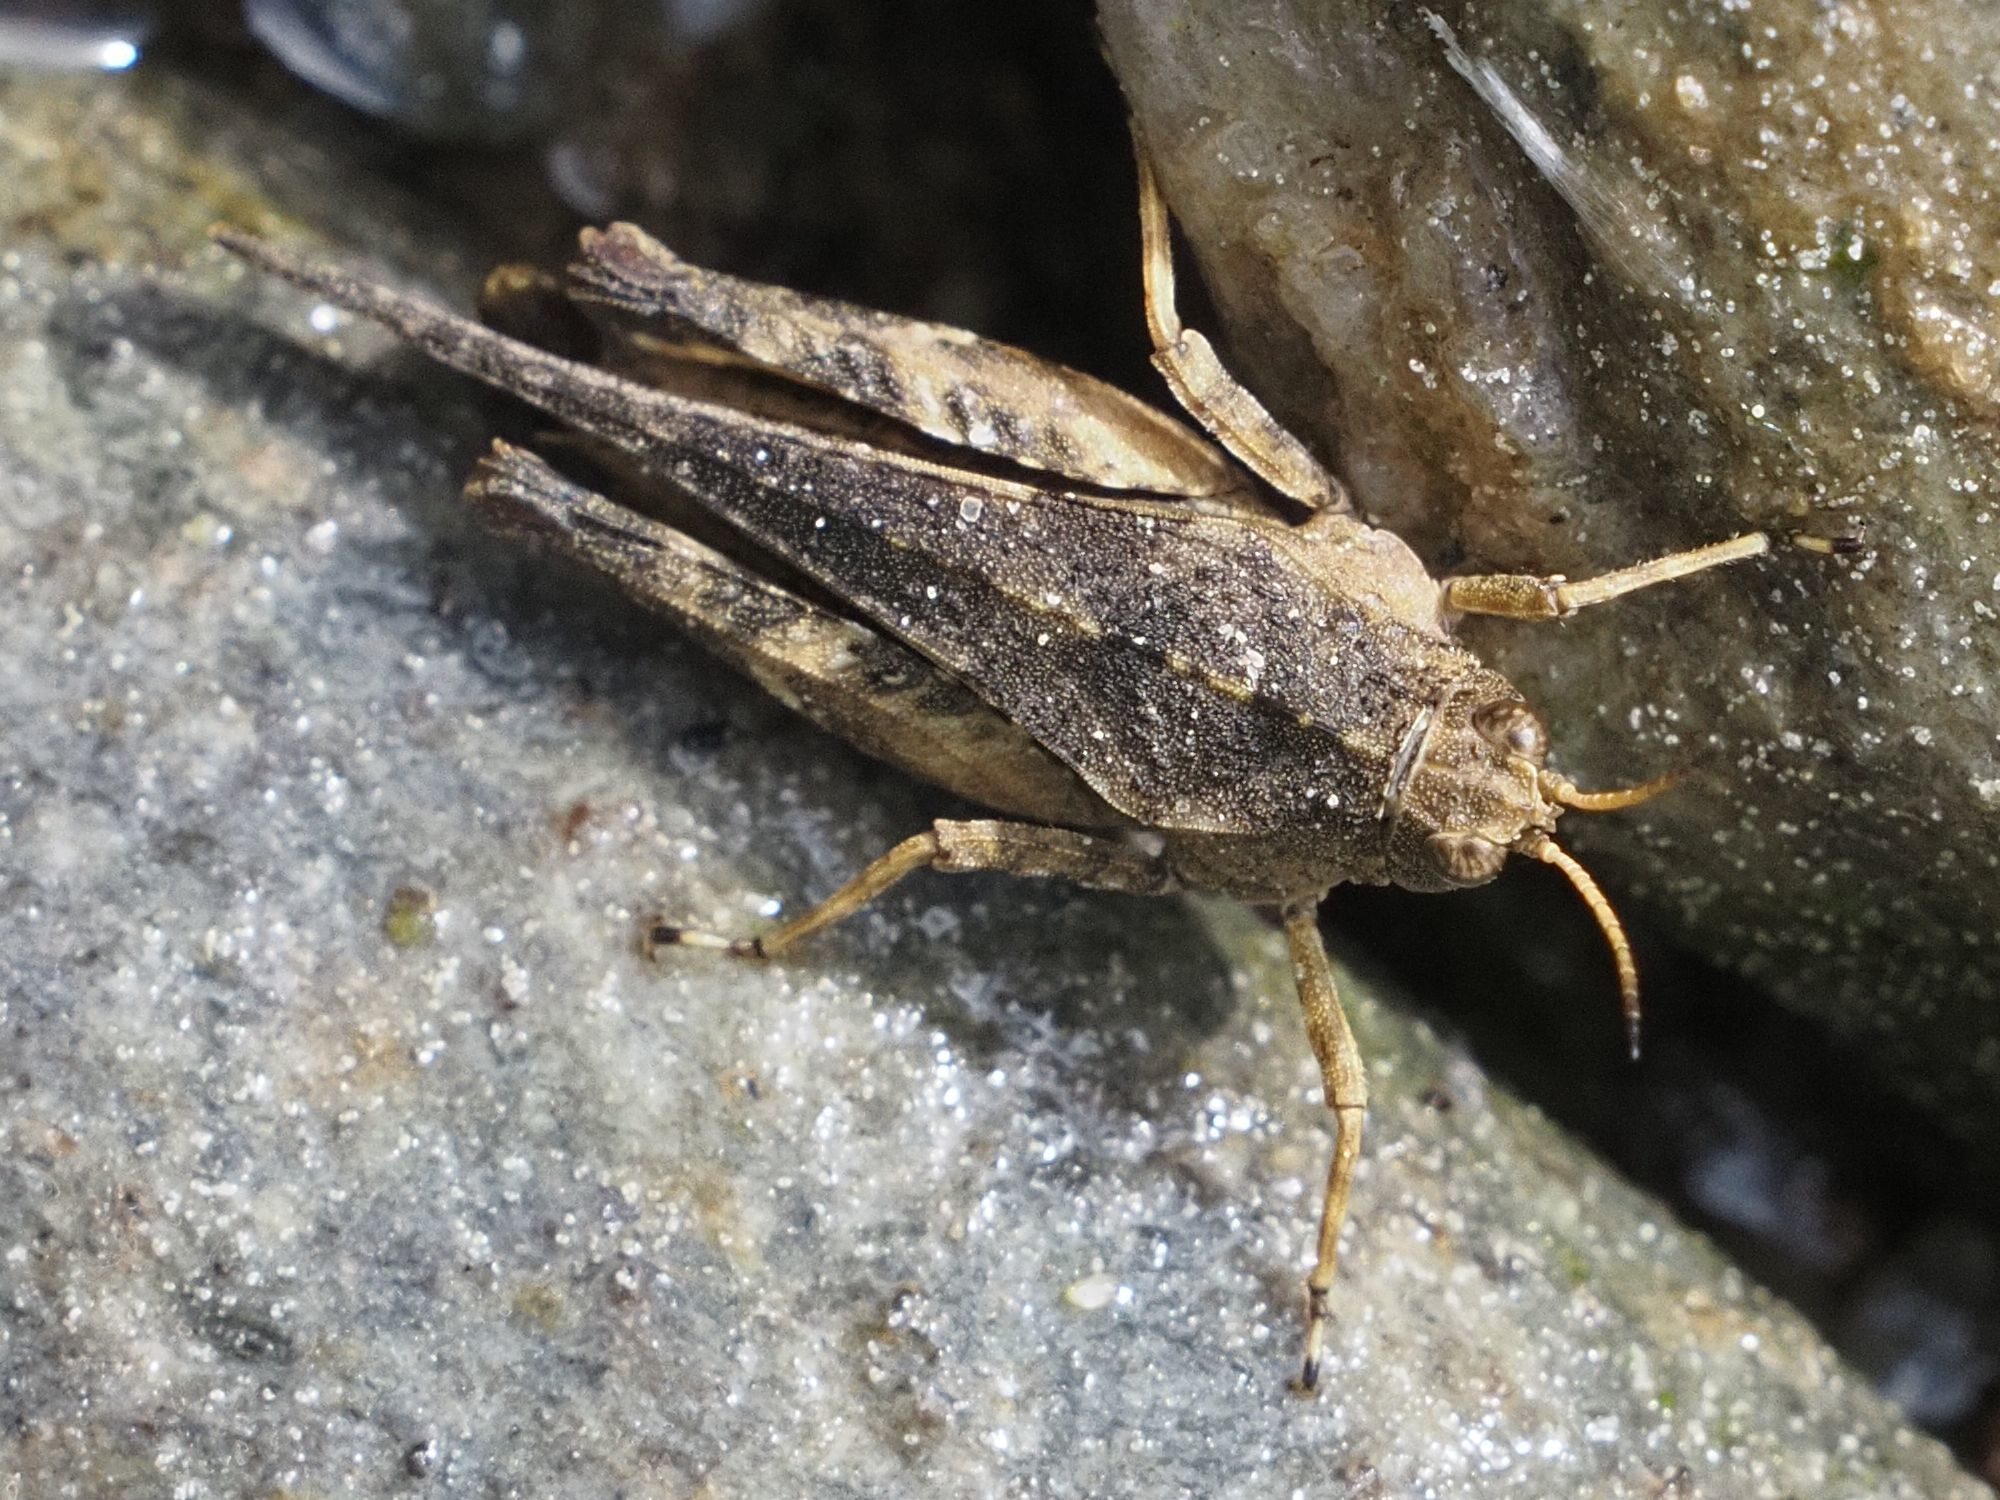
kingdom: Animalia
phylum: Arthropoda
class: Insecta
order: Orthoptera
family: Tetrigidae
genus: Tetrix
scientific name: Tetrix subulata
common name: Slender ground-hopper
